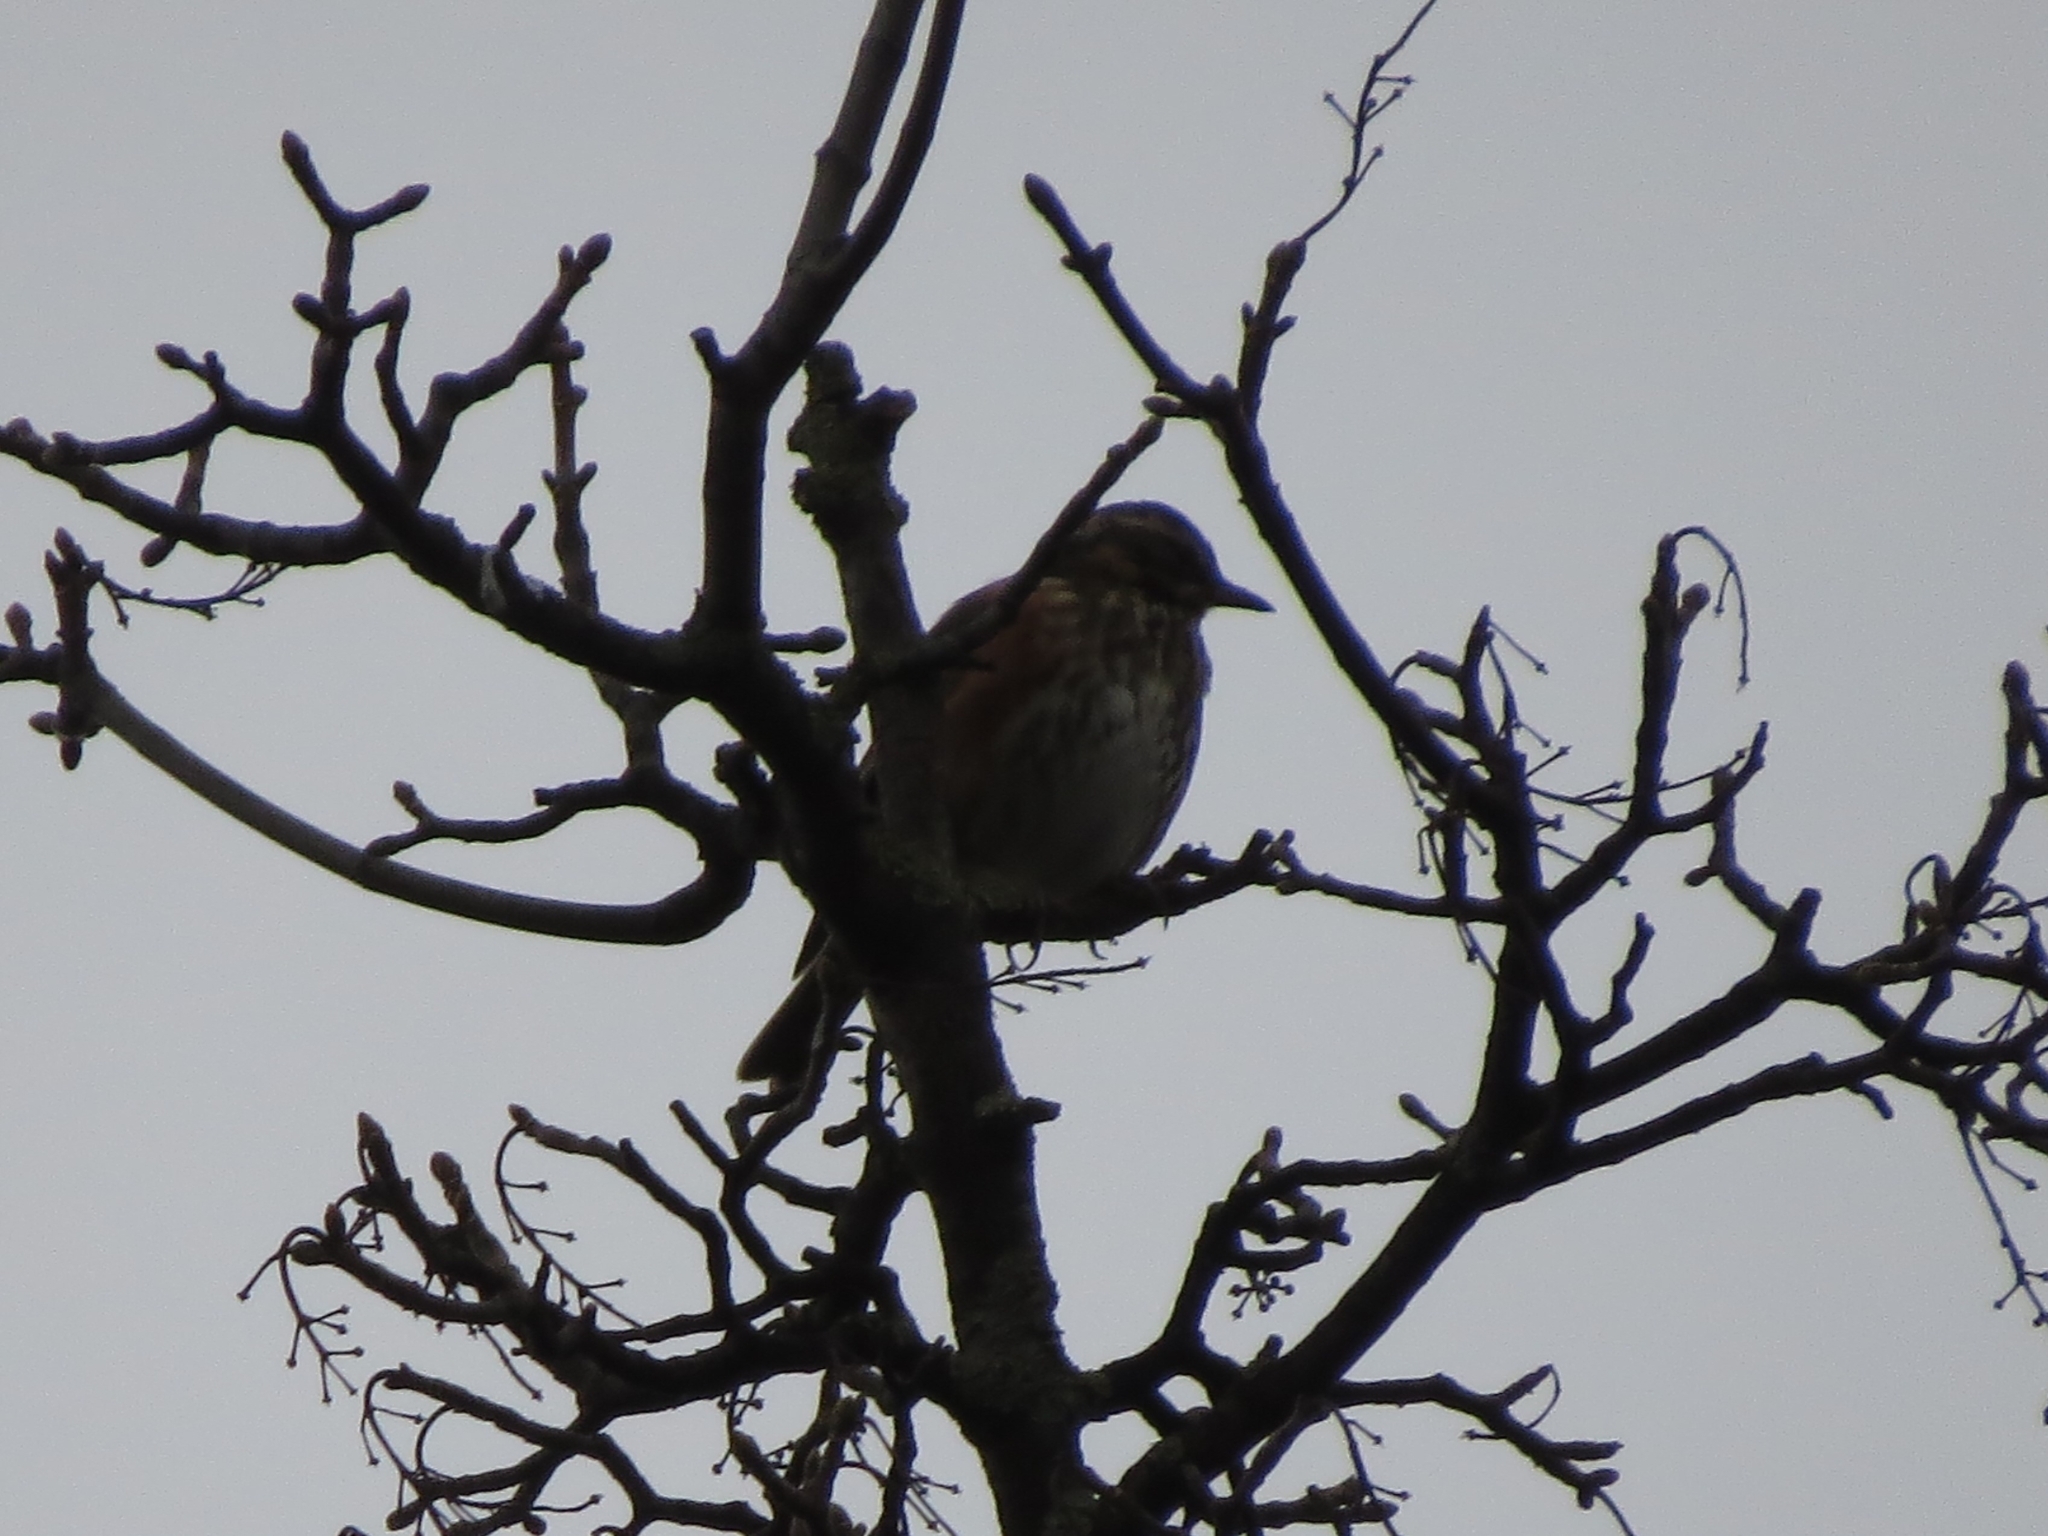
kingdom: Animalia
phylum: Chordata
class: Aves
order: Passeriformes
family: Turdidae
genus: Turdus
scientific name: Turdus iliacus
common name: Redwing
